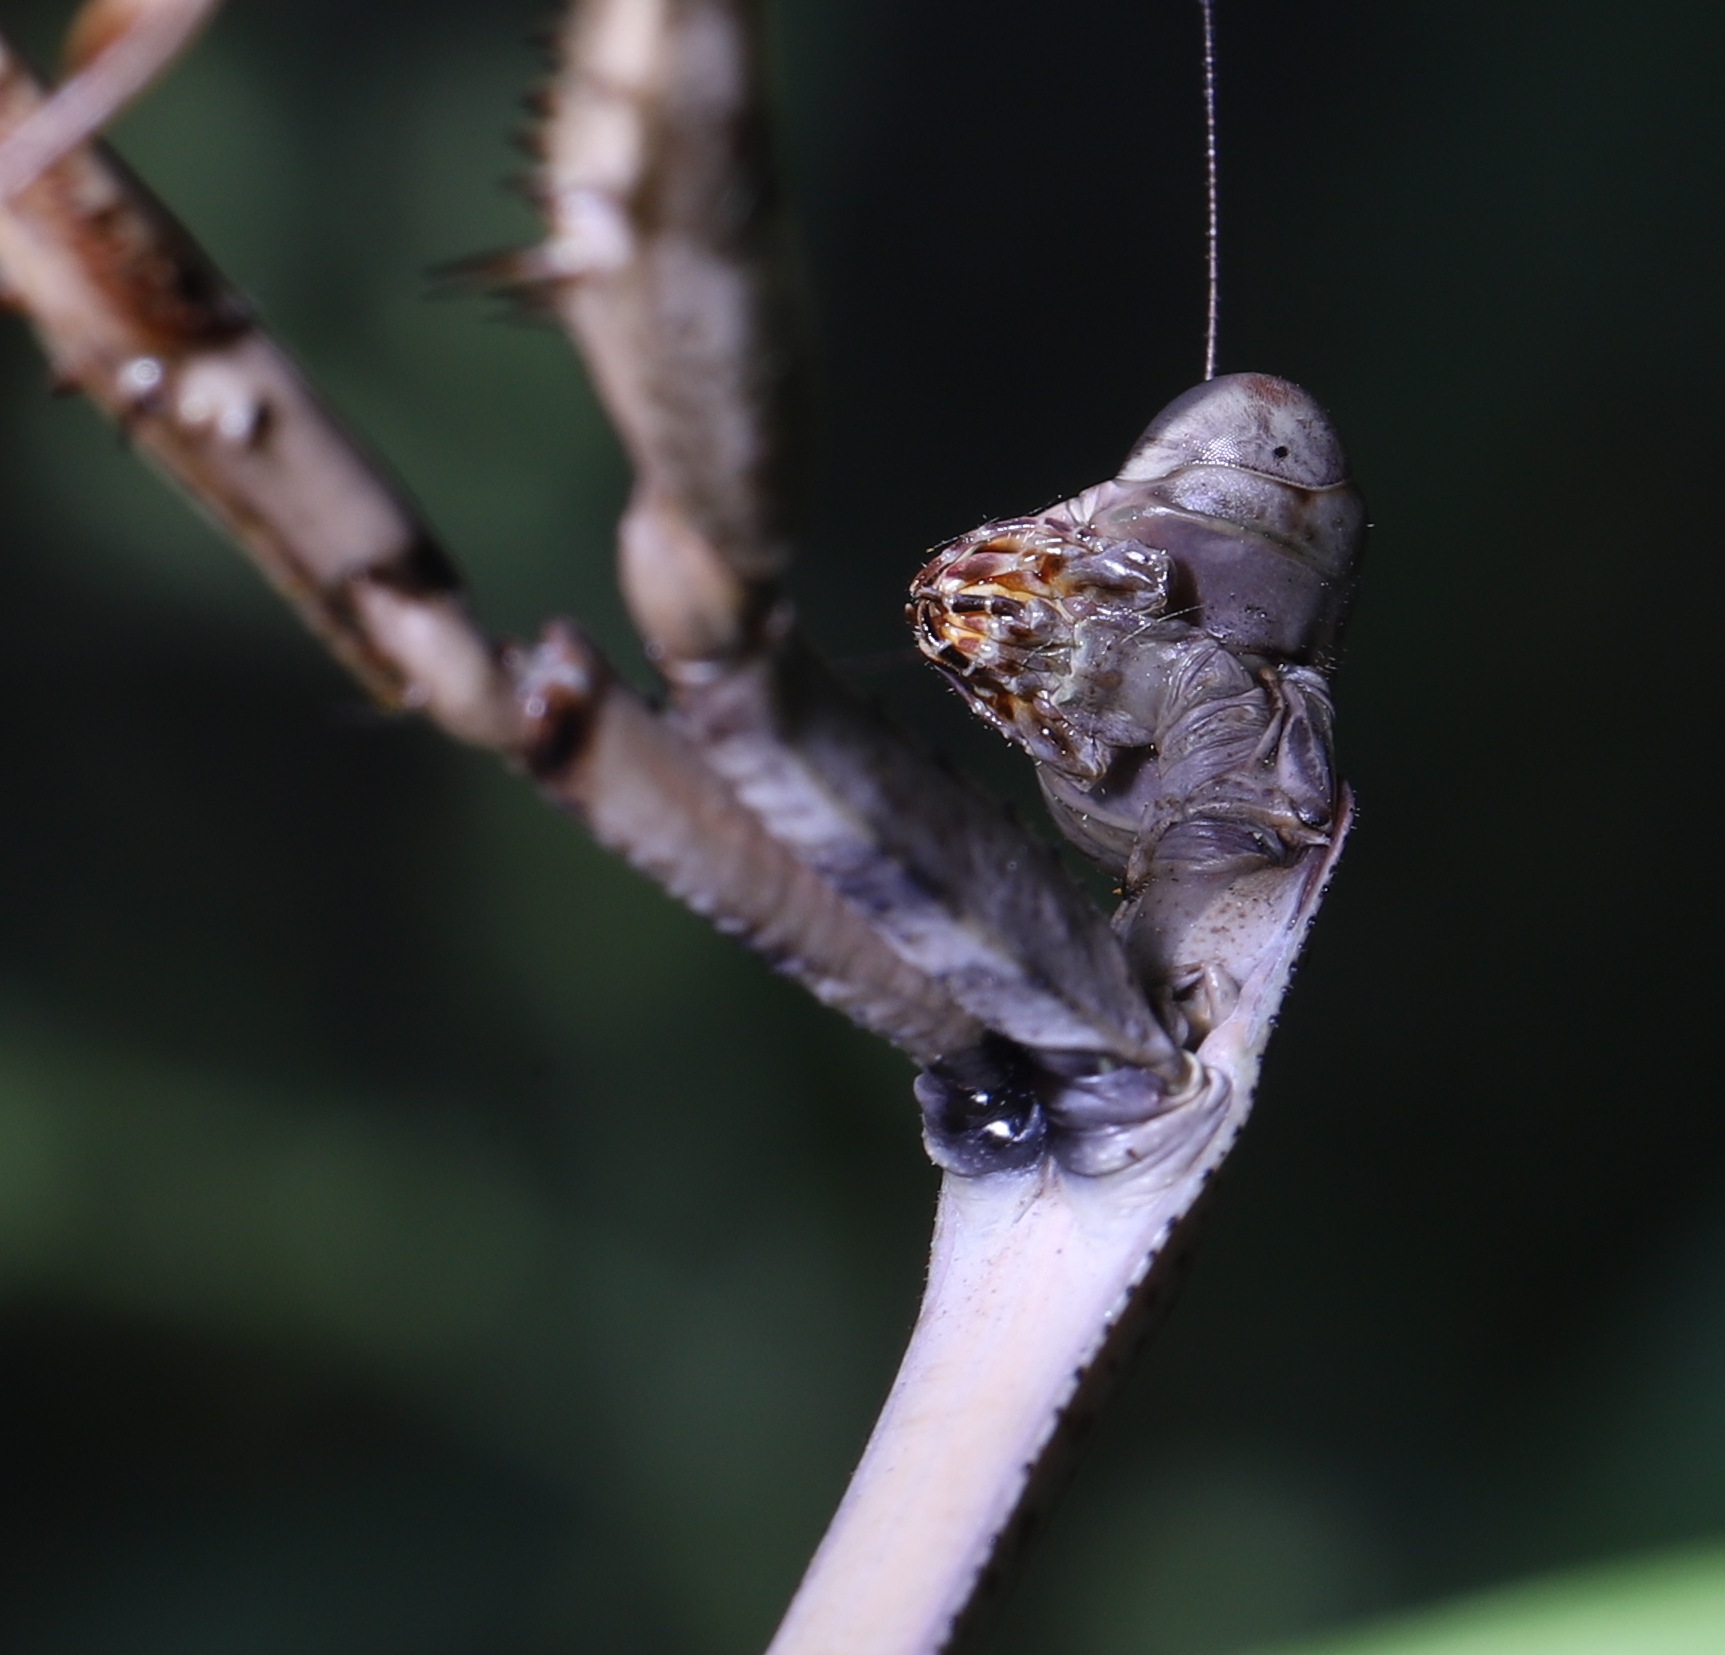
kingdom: Animalia
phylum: Arthropoda
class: Insecta
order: Mantodea
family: Mantidae
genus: Stagmomantis
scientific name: Stagmomantis carolina
